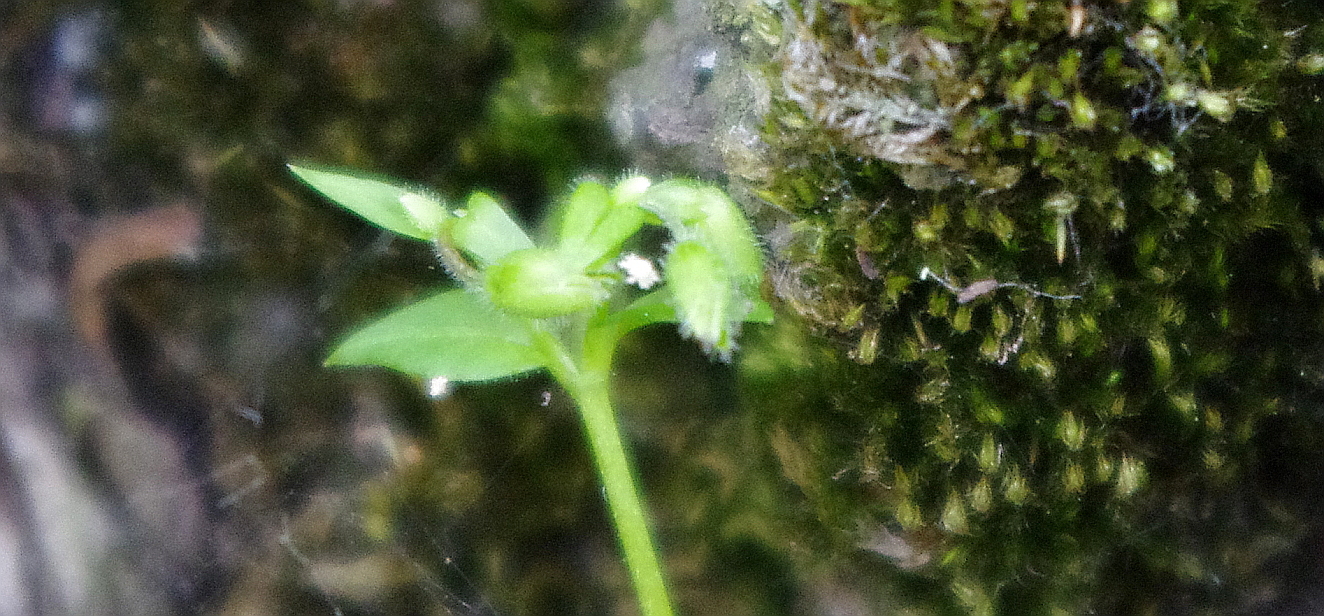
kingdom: Plantae
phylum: Tracheophyta
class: Magnoliopsida
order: Caryophyllales
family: Caryophyllaceae
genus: Stellaria
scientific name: Stellaria media
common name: Common chickweed
